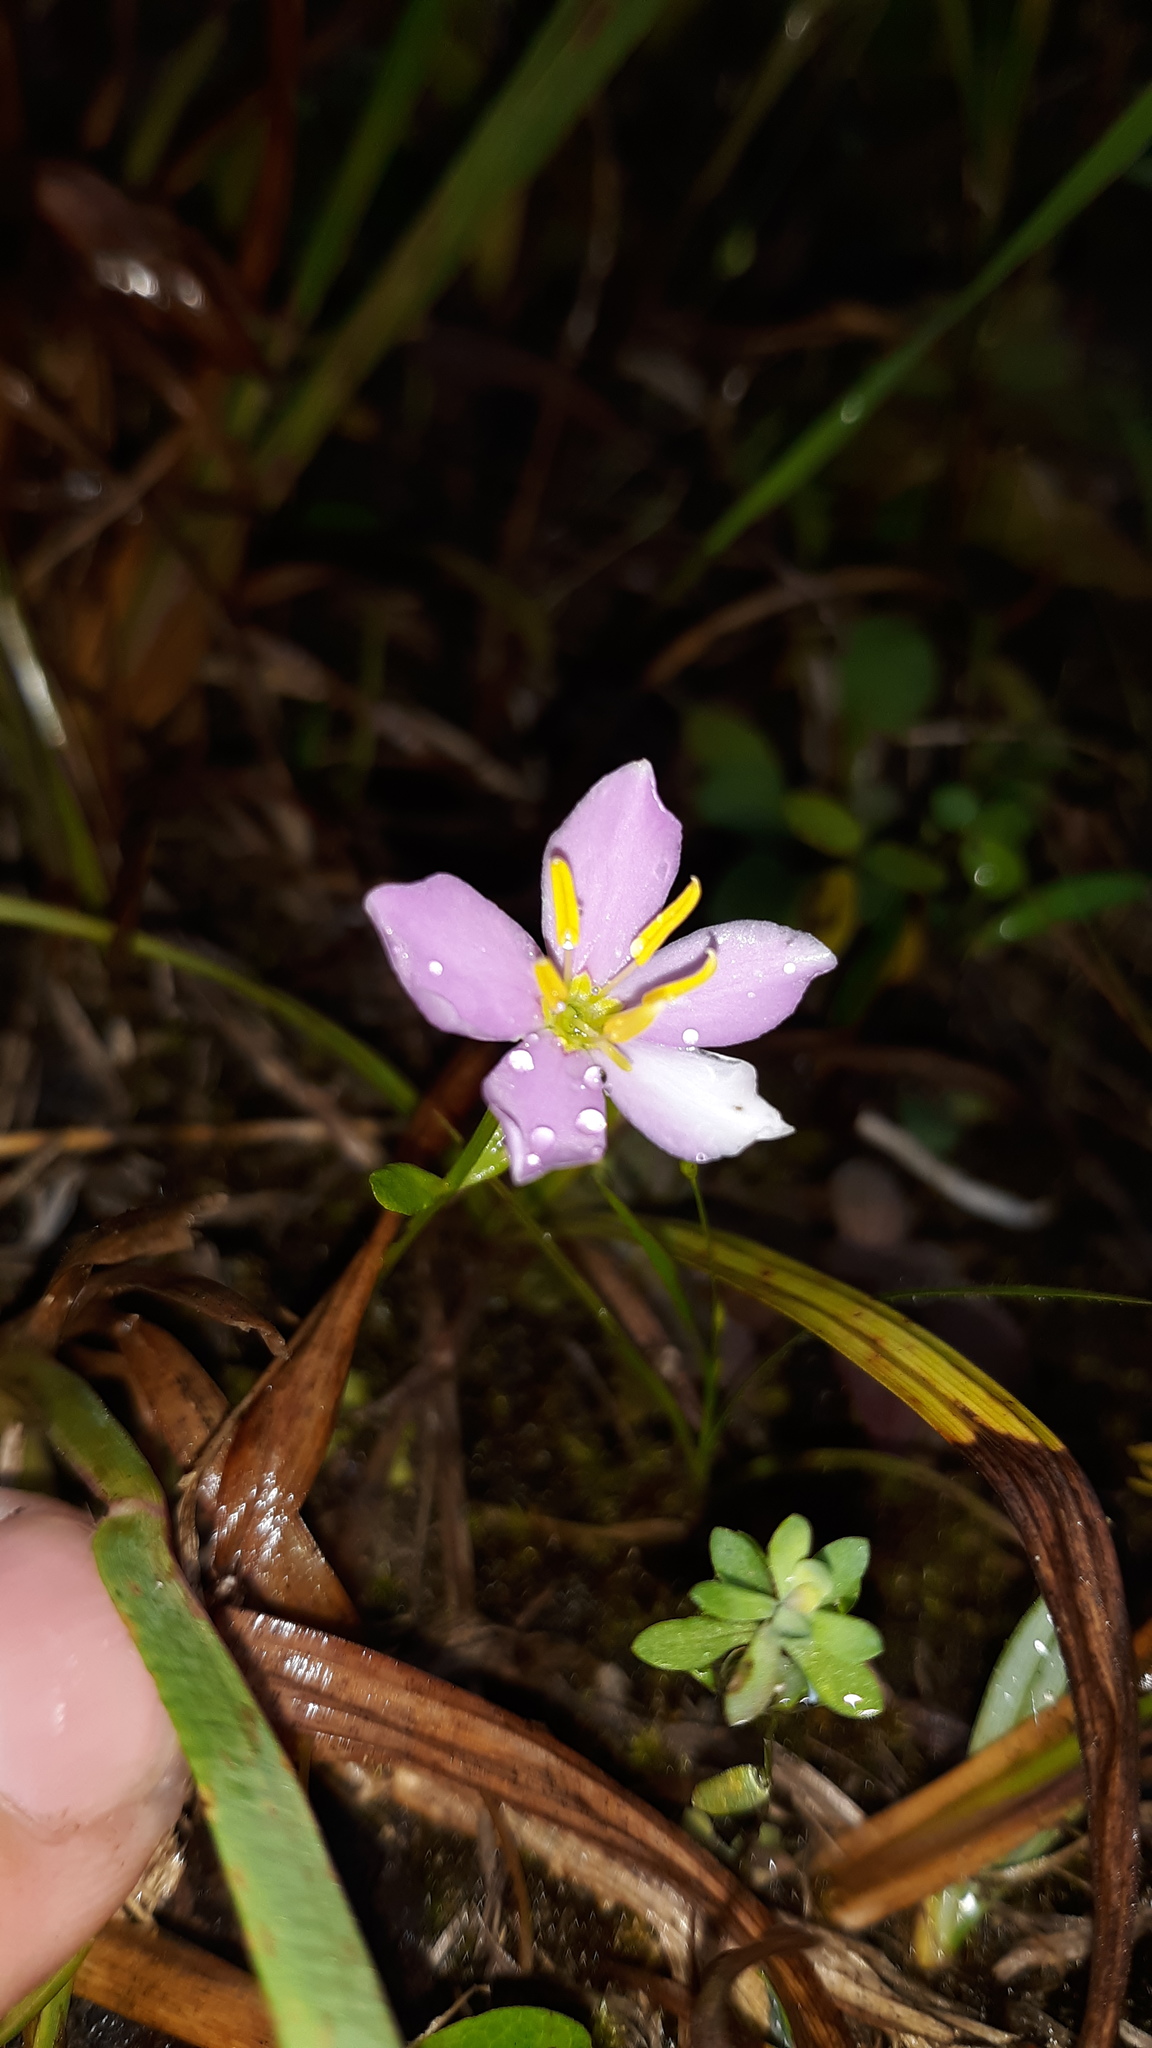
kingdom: Plantae
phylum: Tracheophyta
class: Magnoliopsida
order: Gentianales
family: Gentianaceae
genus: Sabatia
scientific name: Sabatia angularis
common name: Rose-pink
